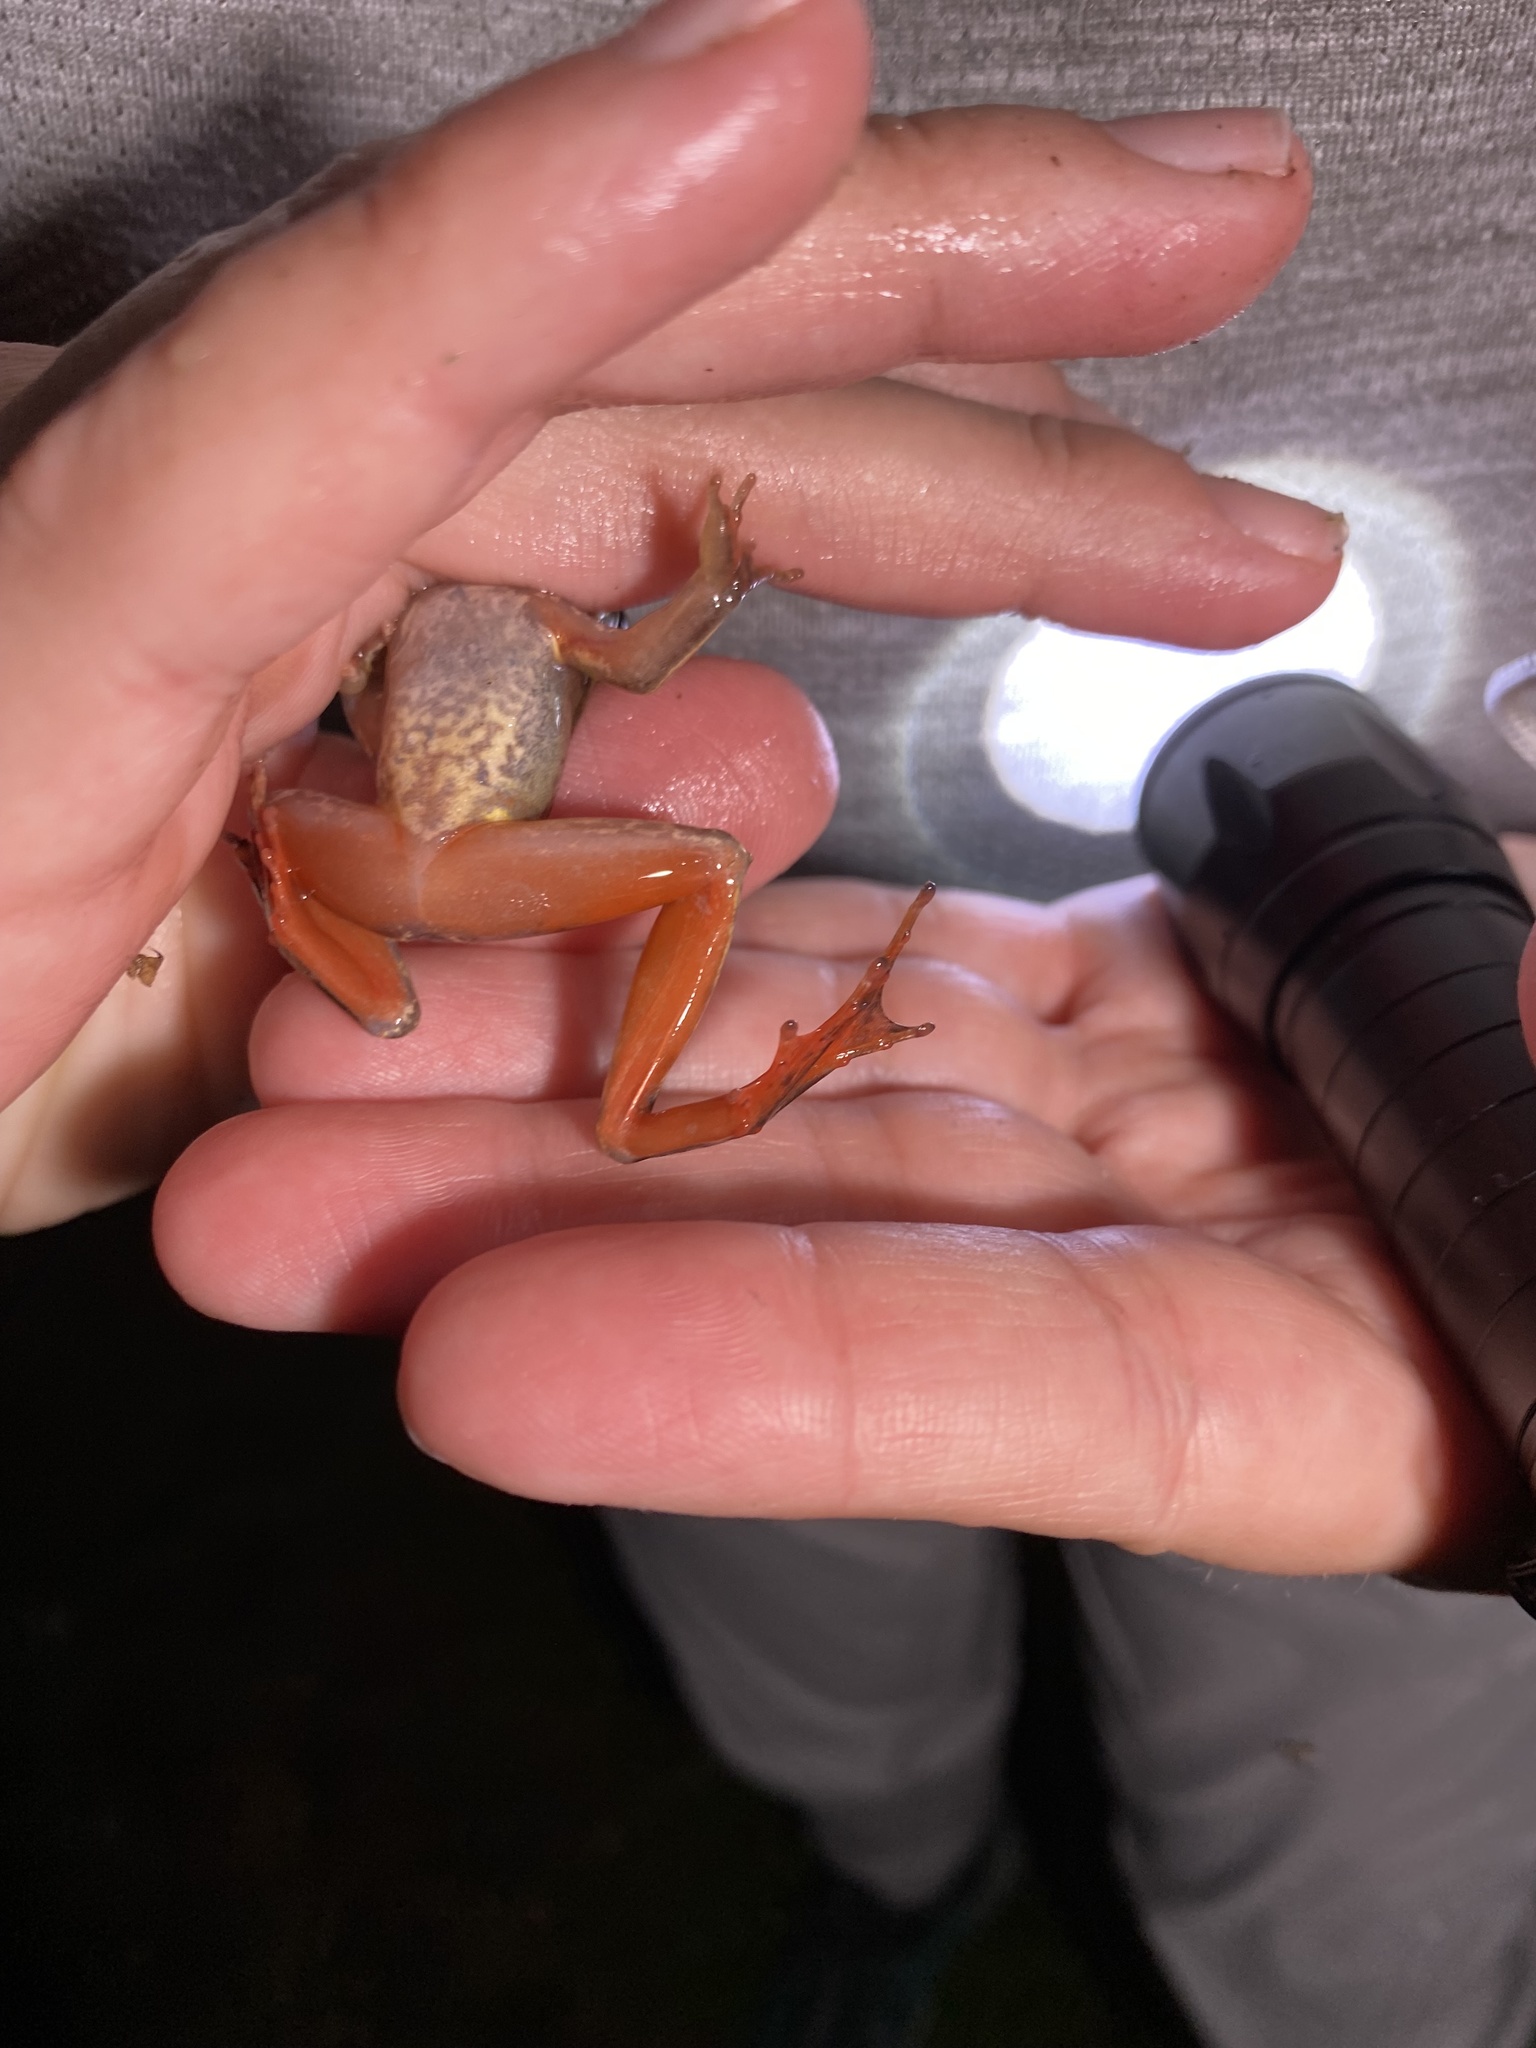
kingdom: Animalia
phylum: Chordata
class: Amphibia
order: Anura
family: Ranidae
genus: Lithobates
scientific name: Lithobates warszewitschii
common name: Warszewitsch's frog
